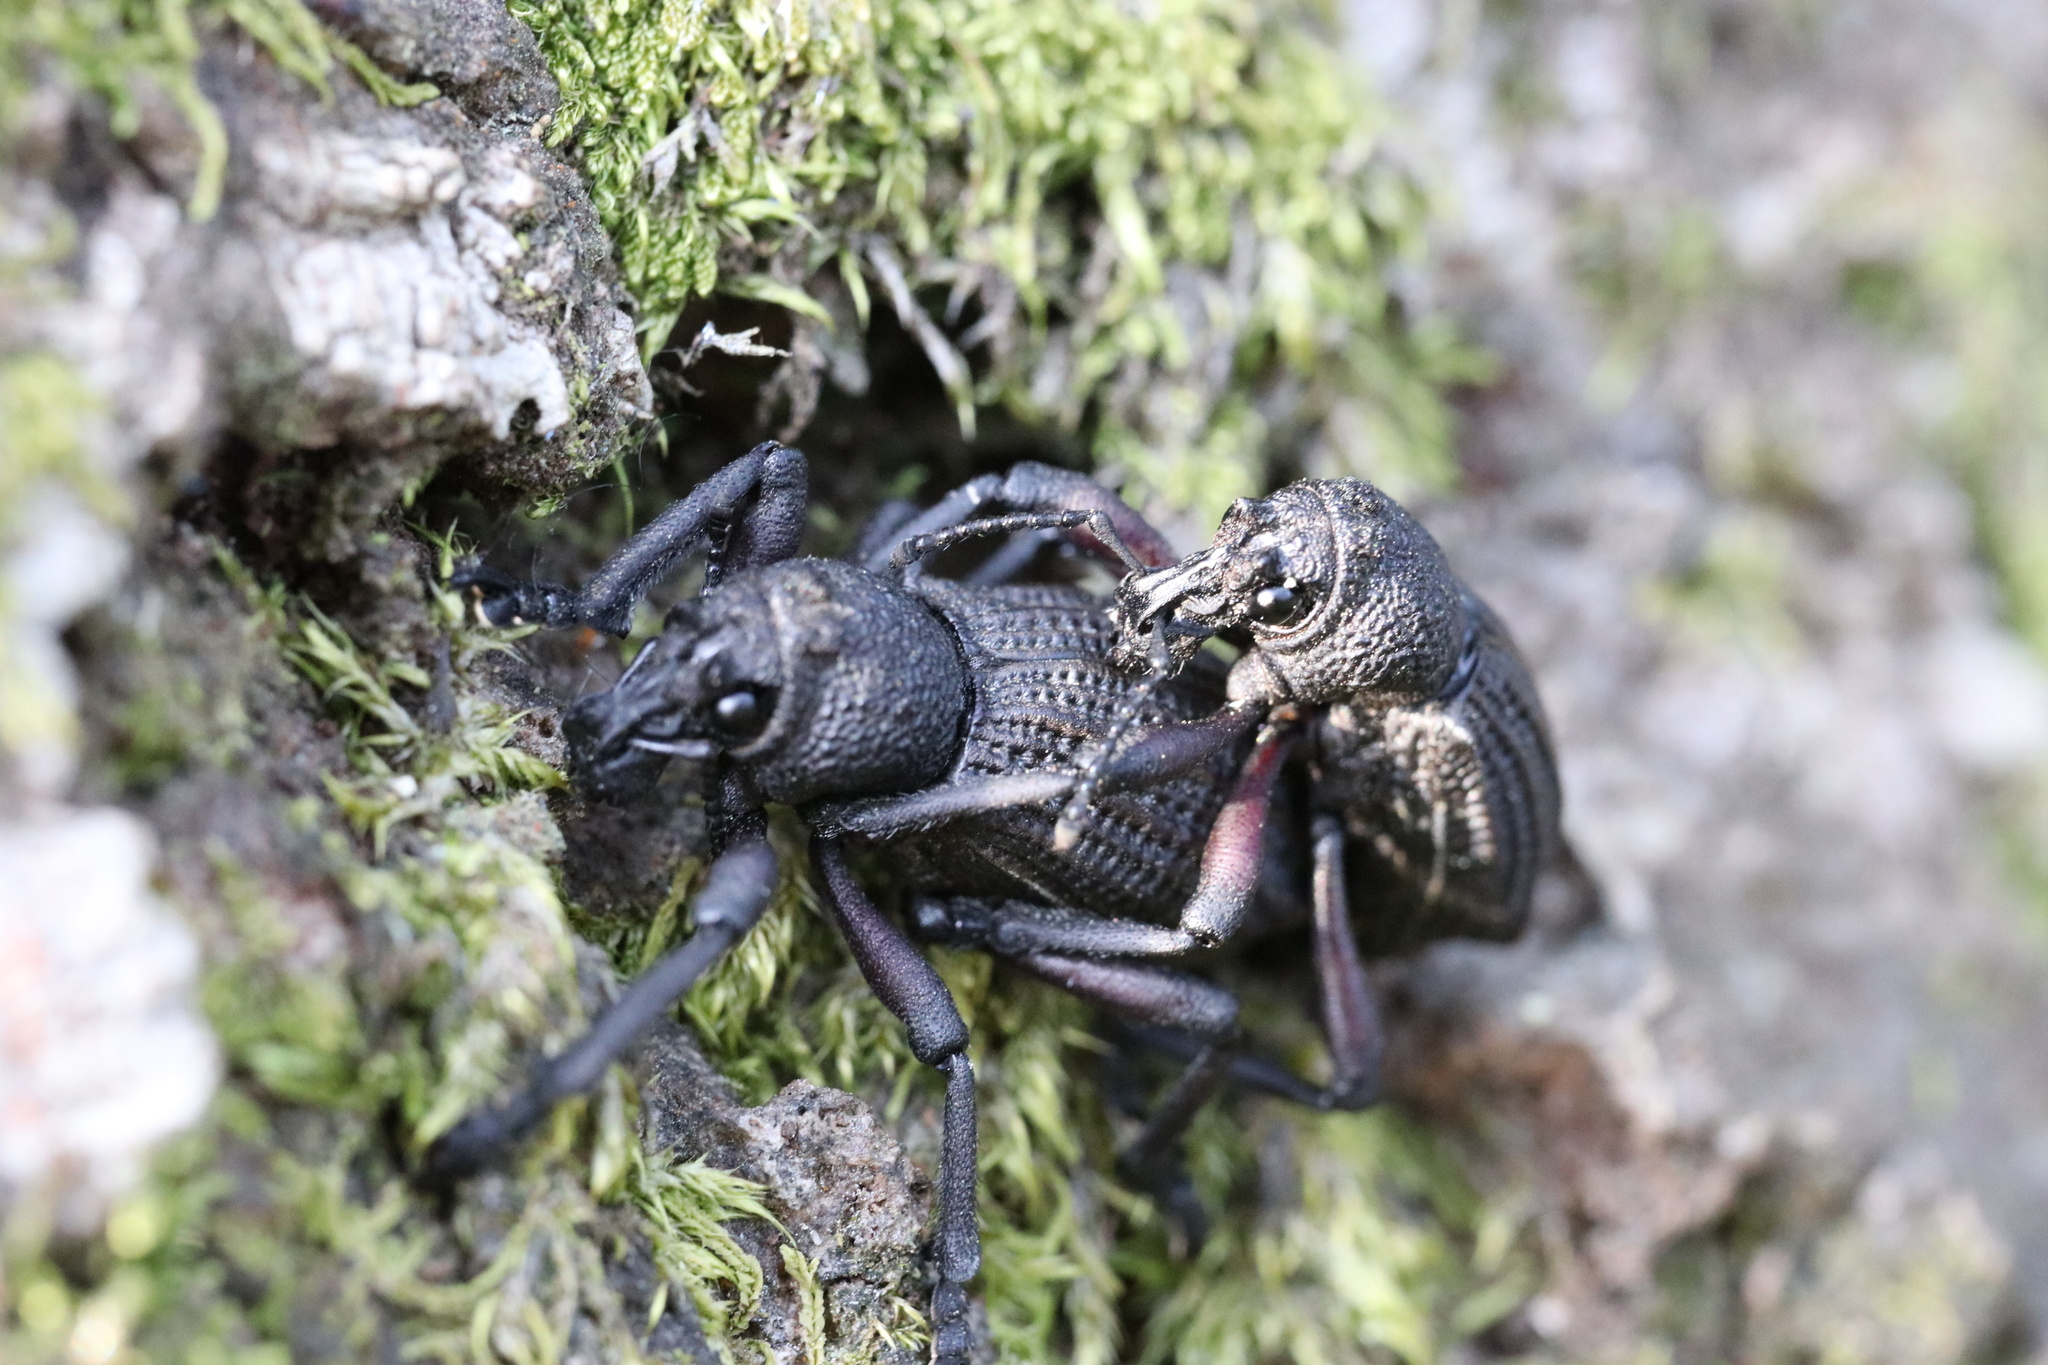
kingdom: Animalia
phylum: Arthropoda
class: Insecta
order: Coleoptera
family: Curculionidae
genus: Aegorhinus
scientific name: Aegorhinus
